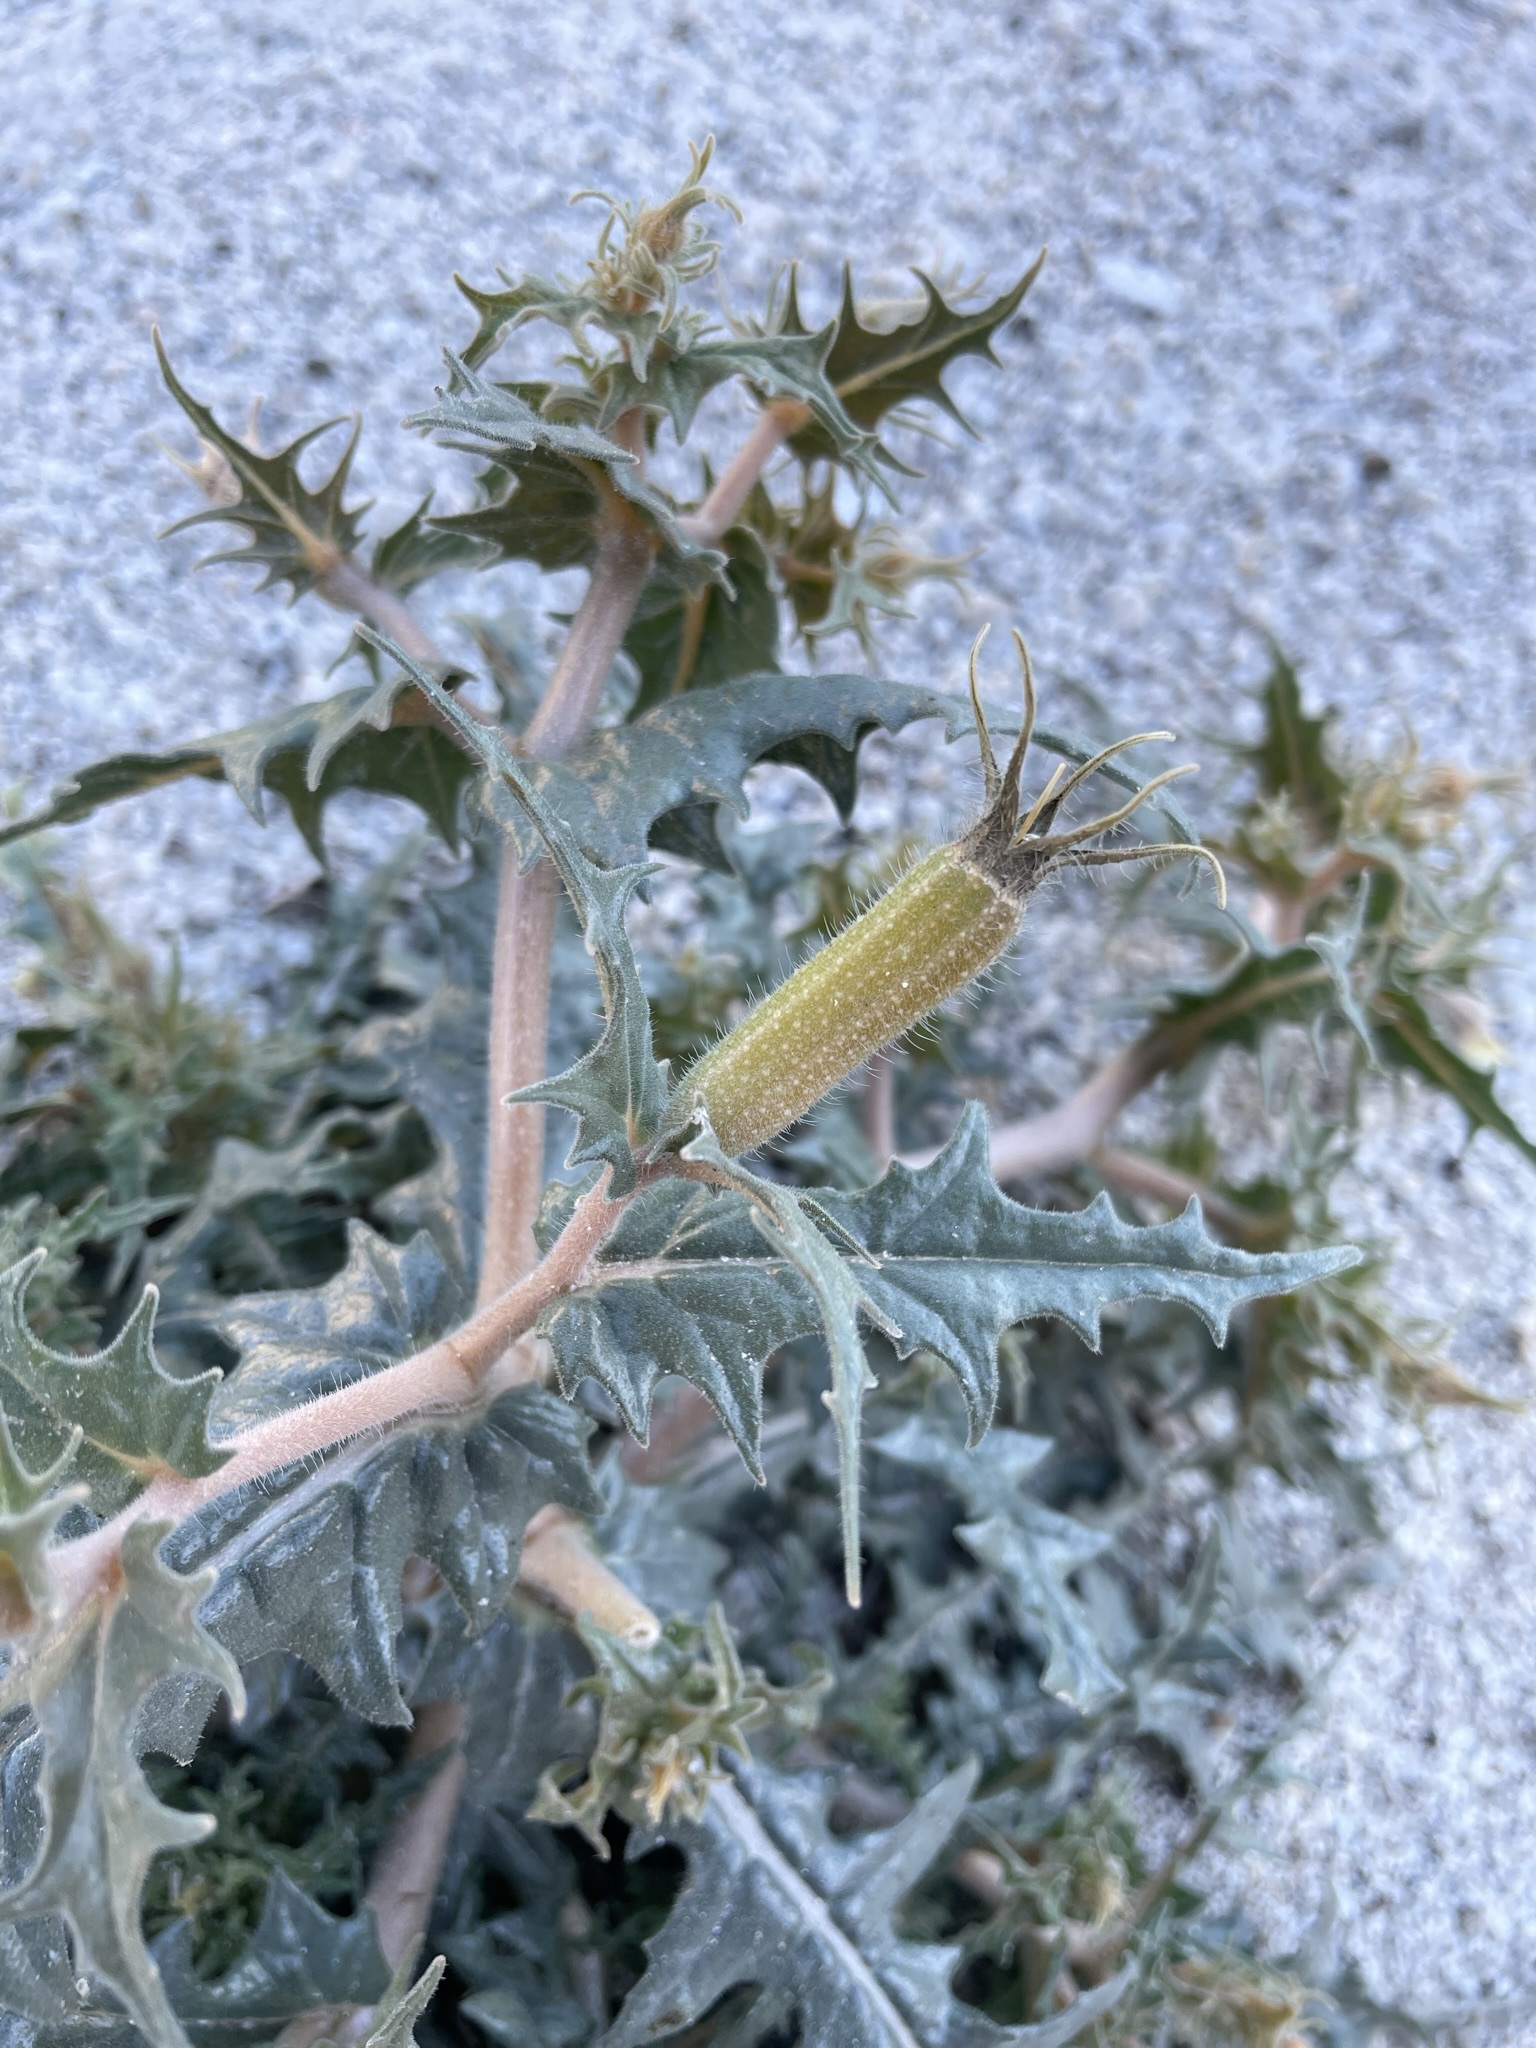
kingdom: Plantae
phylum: Tracheophyta
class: Magnoliopsida
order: Cornales
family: Loasaceae
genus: Mentzelia
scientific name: Mentzelia hirsutissima
